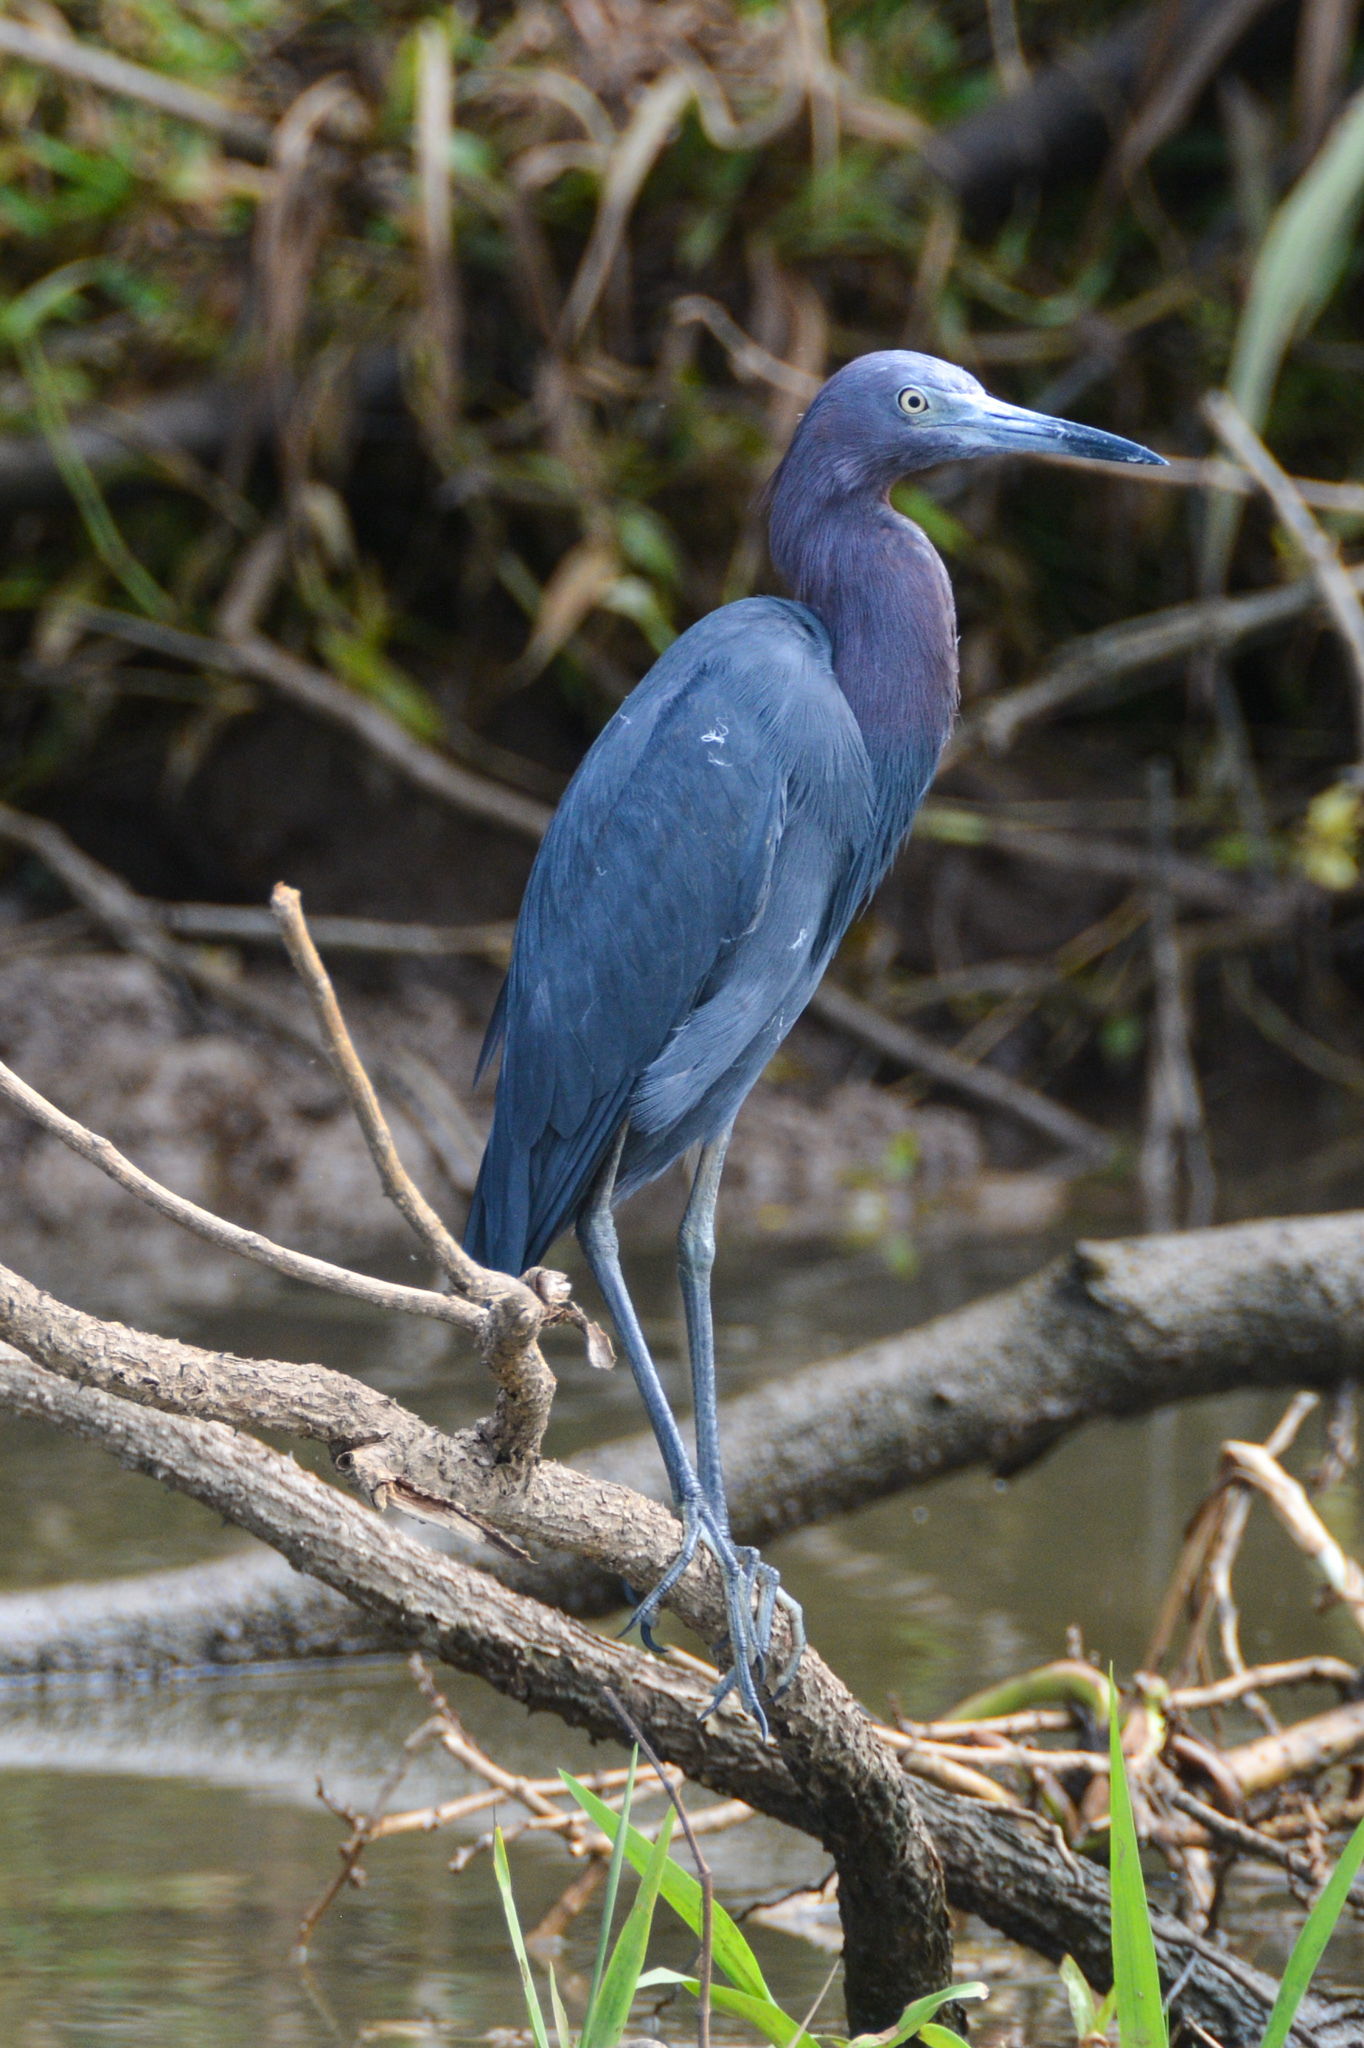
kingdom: Animalia
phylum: Chordata
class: Aves
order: Pelecaniformes
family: Ardeidae
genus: Egretta
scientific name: Egretta caerulea
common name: Little blue heron
